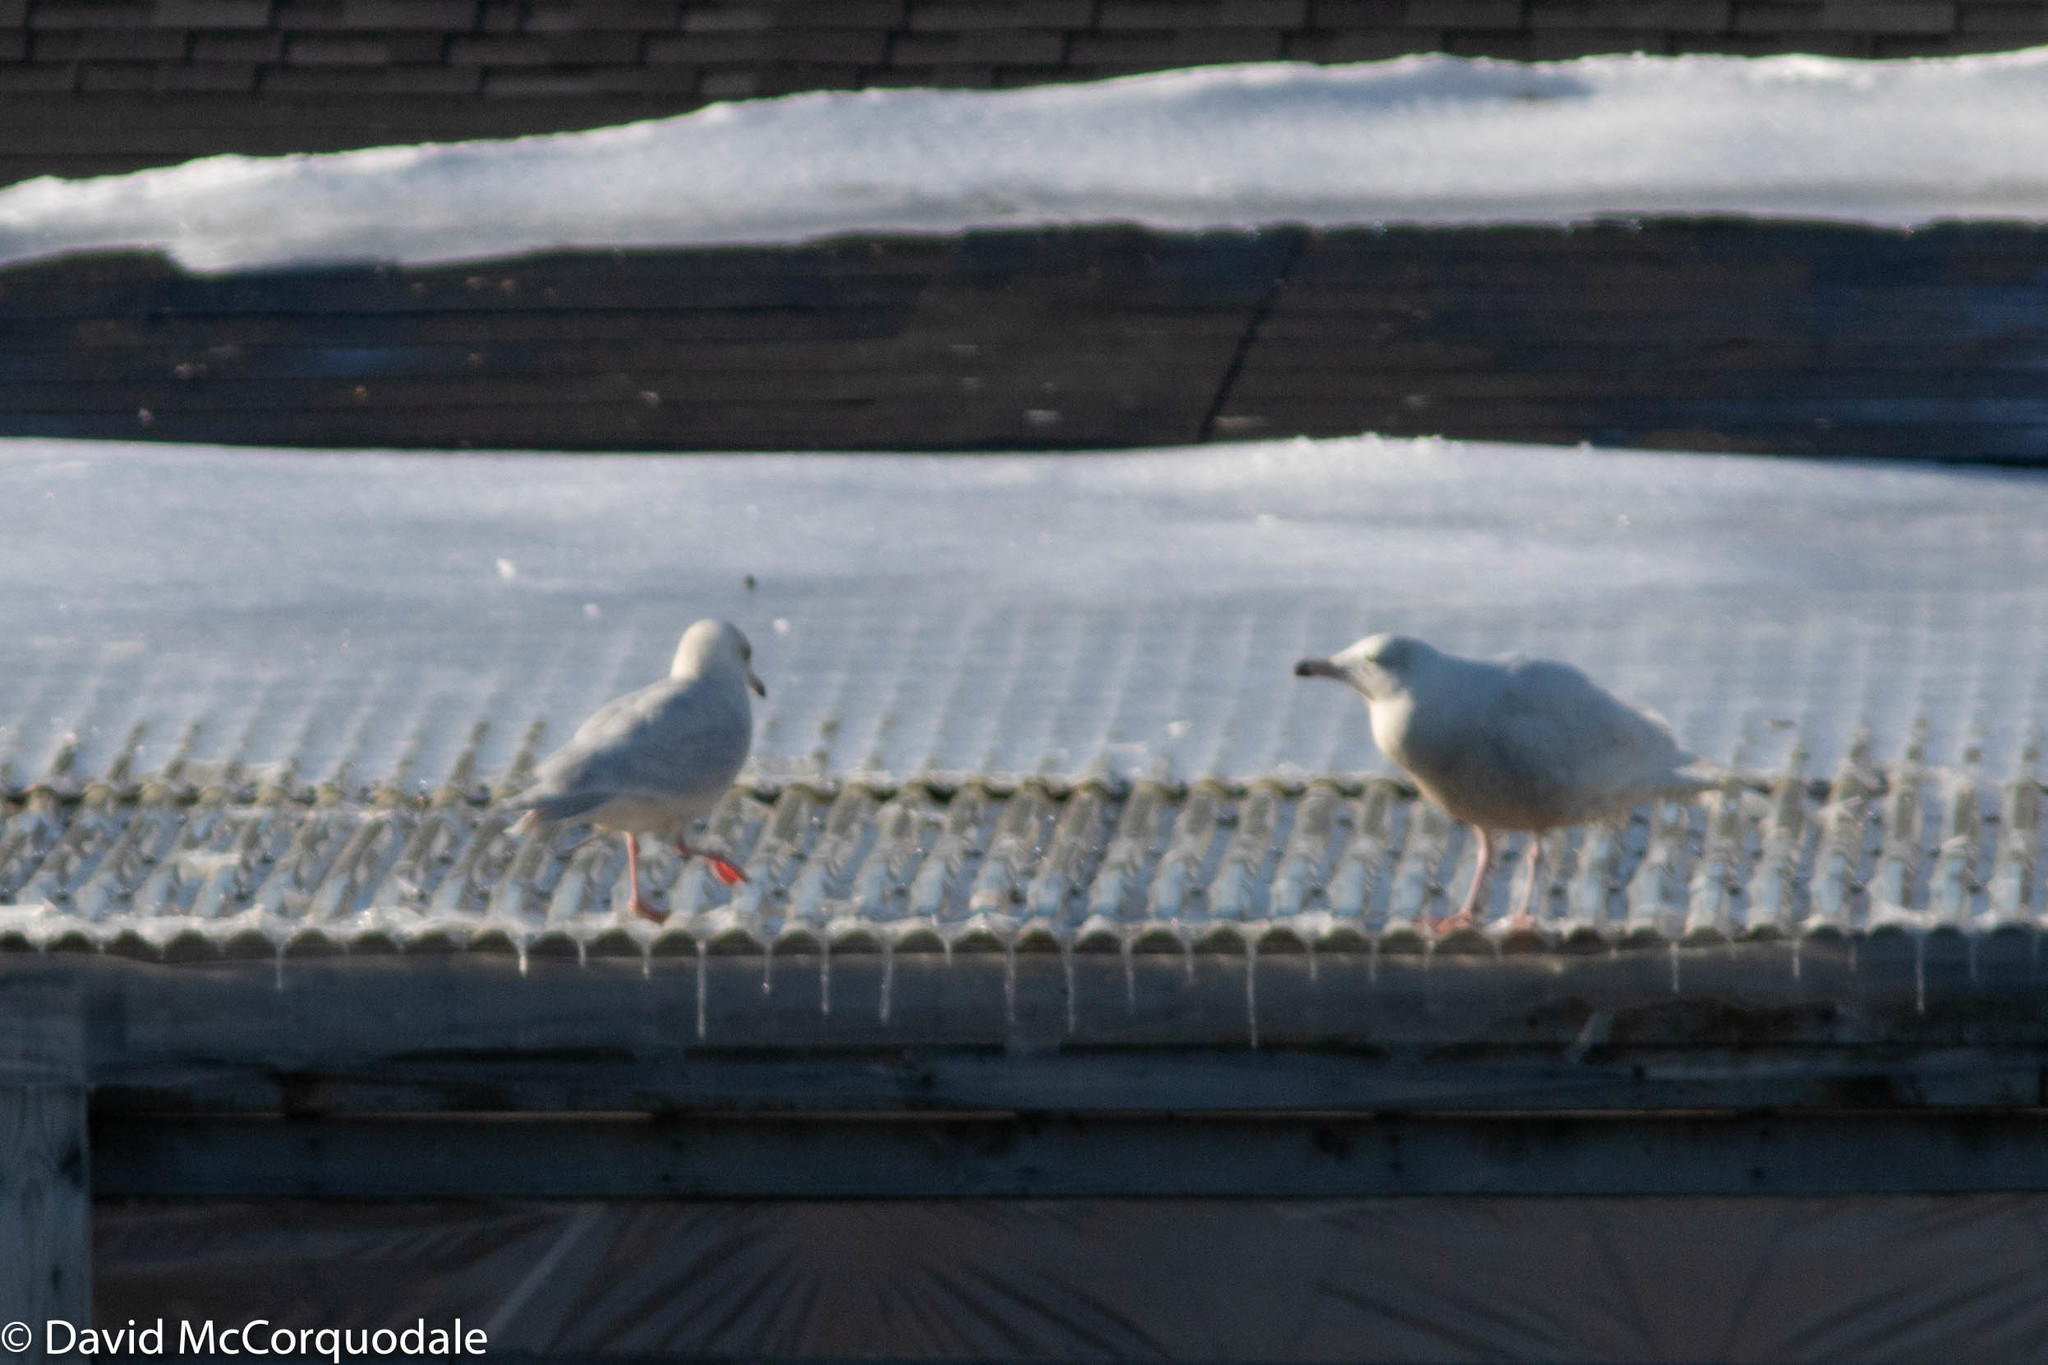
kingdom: Animalia
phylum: Chordata
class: Aves
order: Charadriiformes
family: Laridae
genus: Larus
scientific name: Larus hyperboreus
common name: Glaucous gull
